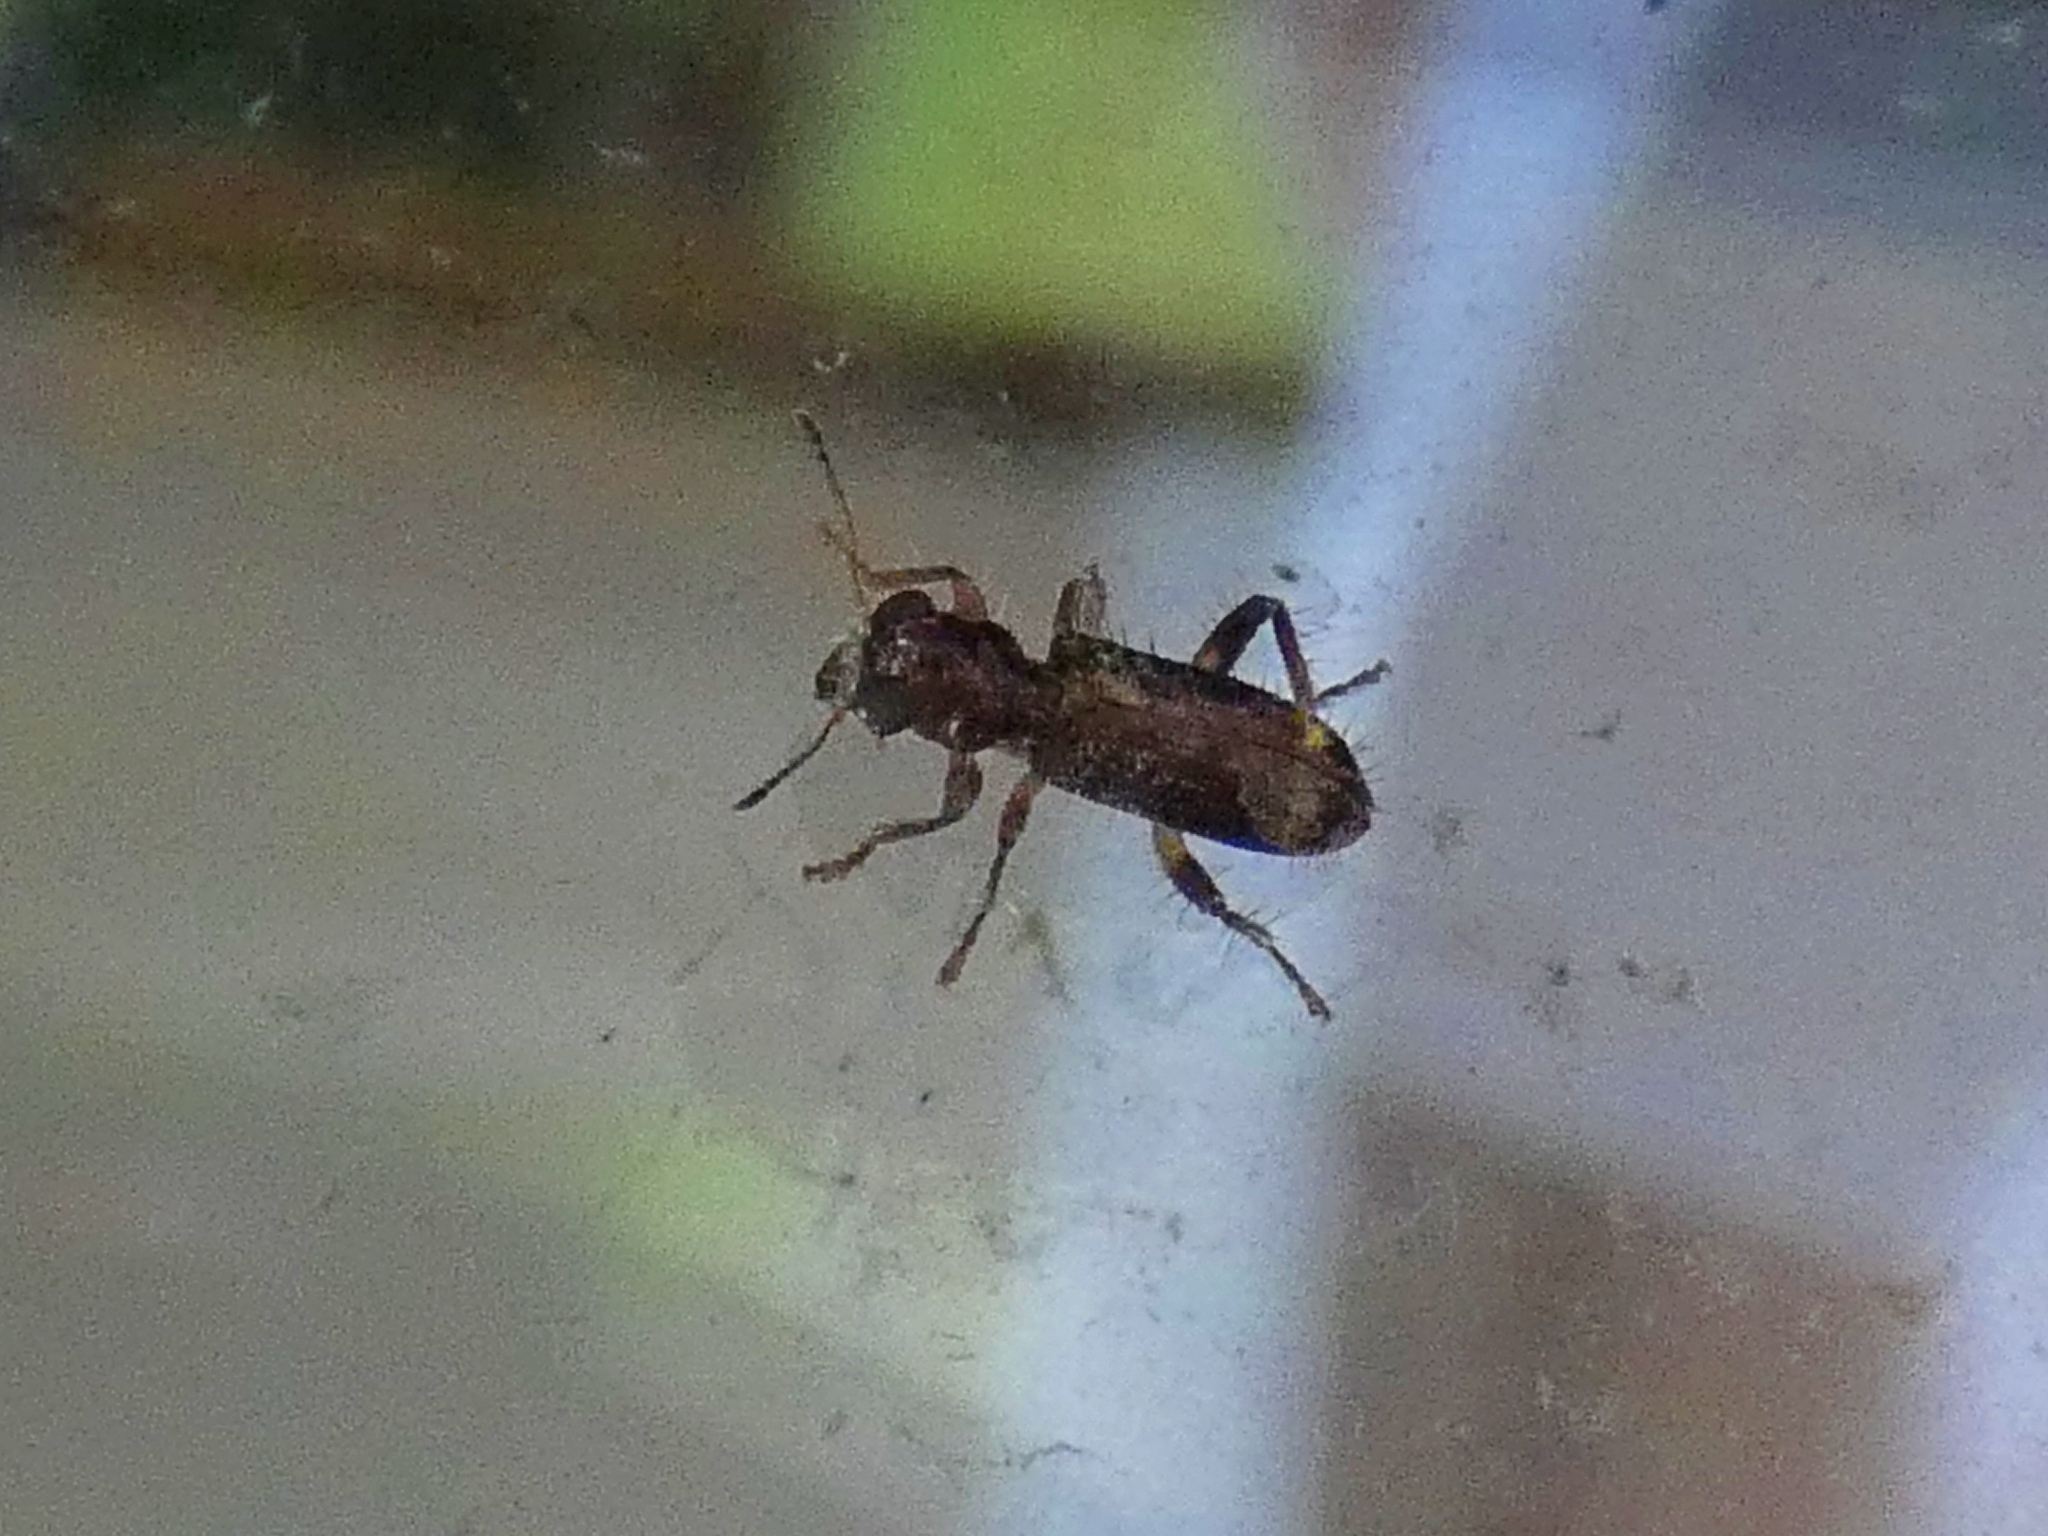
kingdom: Animalia
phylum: Arthropoda
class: Insecta
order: Coleoptera
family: Cleridae
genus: Stigmatium
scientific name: Stigmatium linealba
